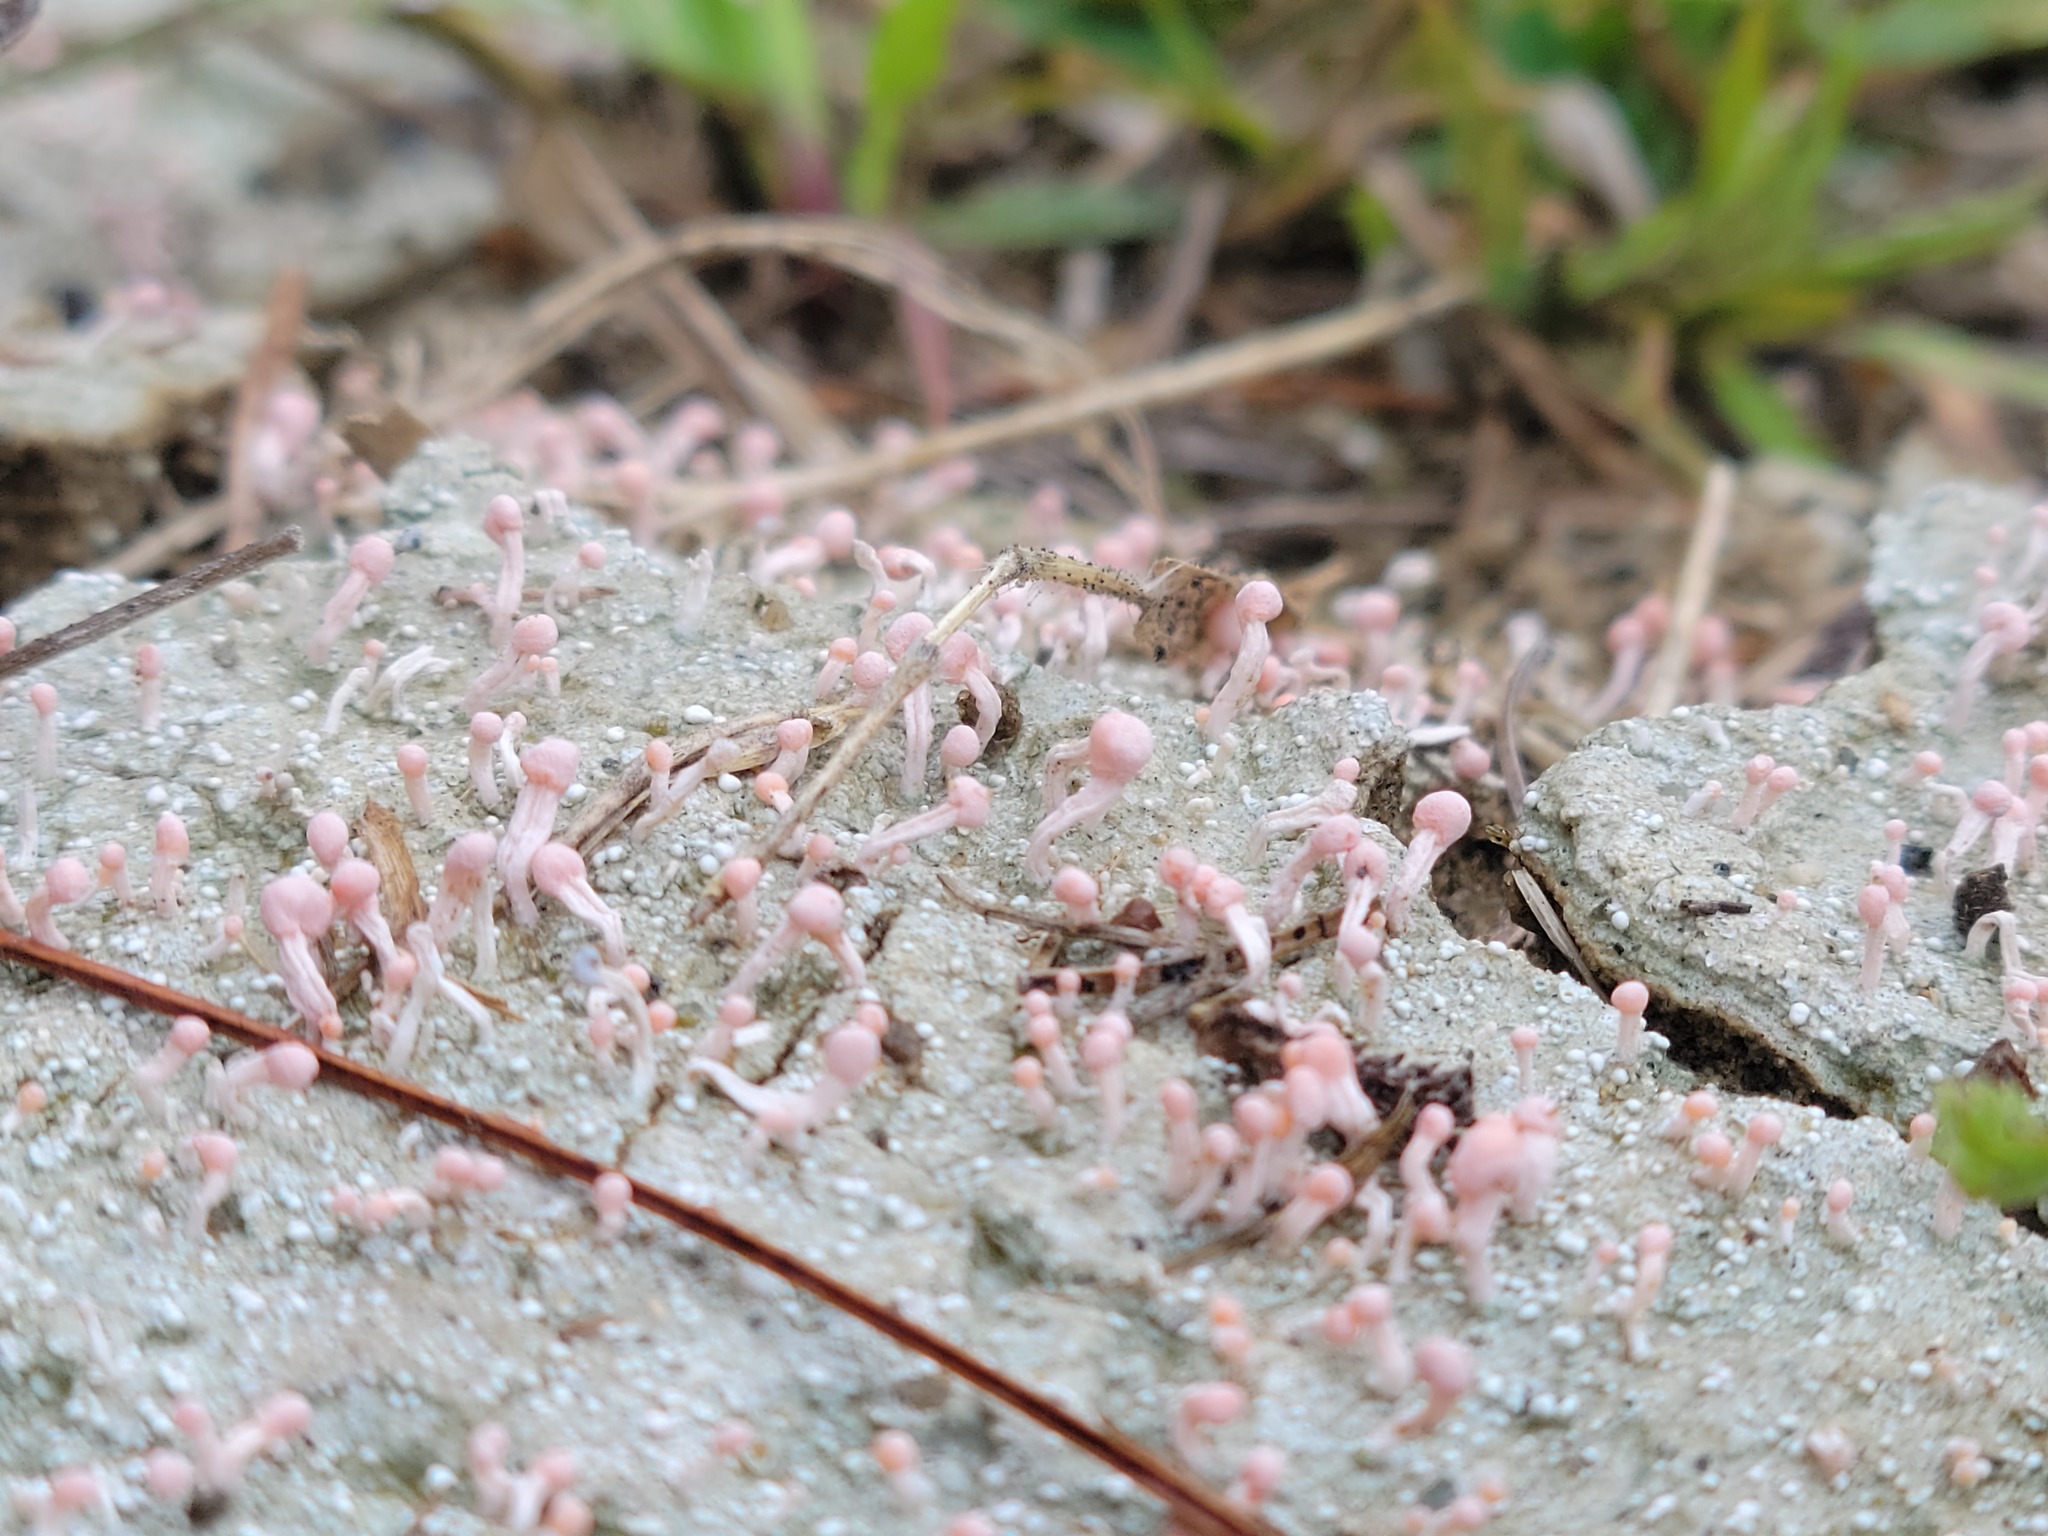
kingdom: Fungi
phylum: Ascomycota
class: Lecanoromycetes
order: Pertusariales
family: Icmadophilaceae
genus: Dibaeis
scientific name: Dibaeis baeomyces
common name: Pink earth lichen
